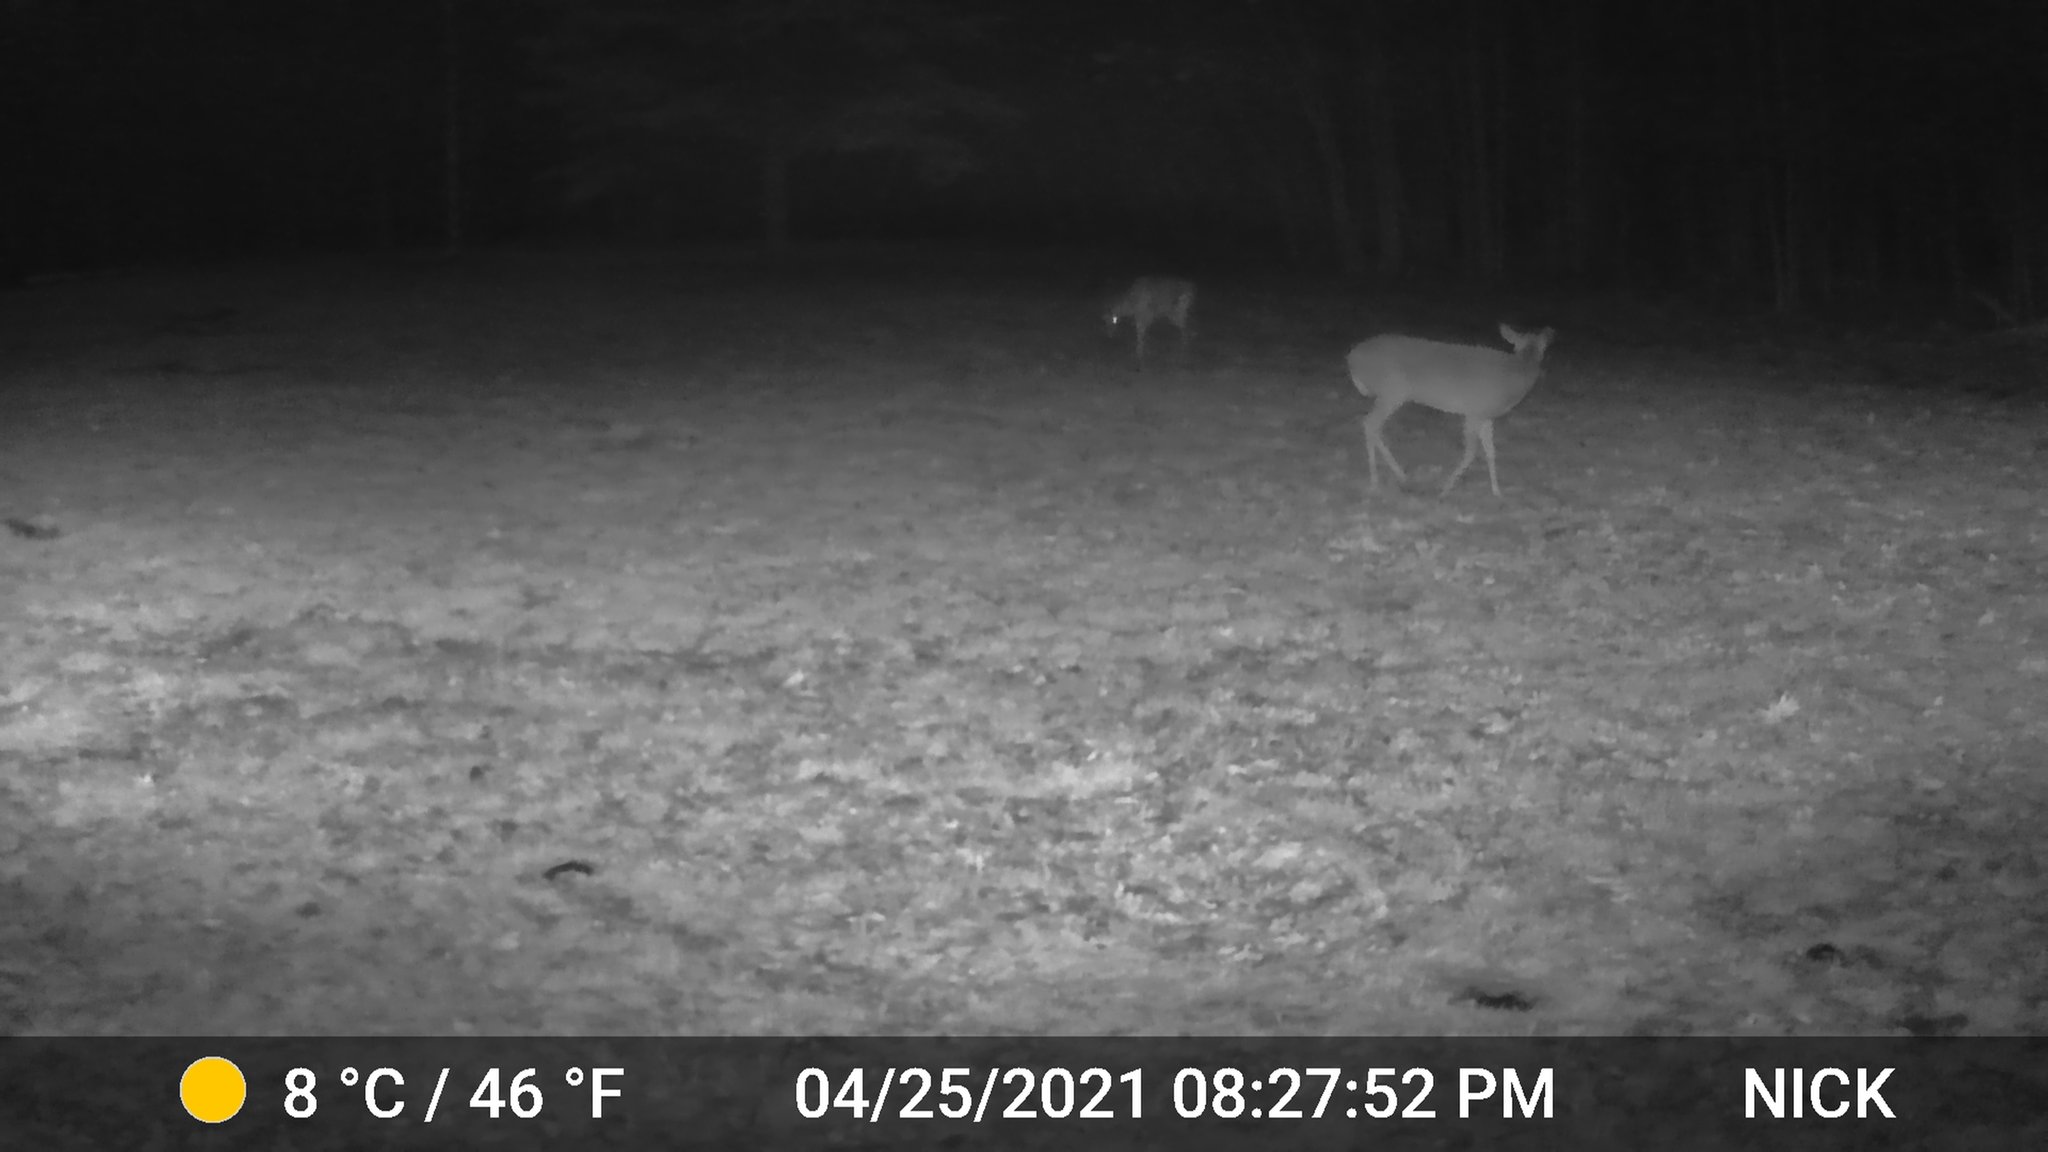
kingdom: Animalia
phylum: Chordata
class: Mammalia
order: Artiodactyla
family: Cervidae
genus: Odocoileus
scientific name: Odocoileus virginianus
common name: White-tailed deer
